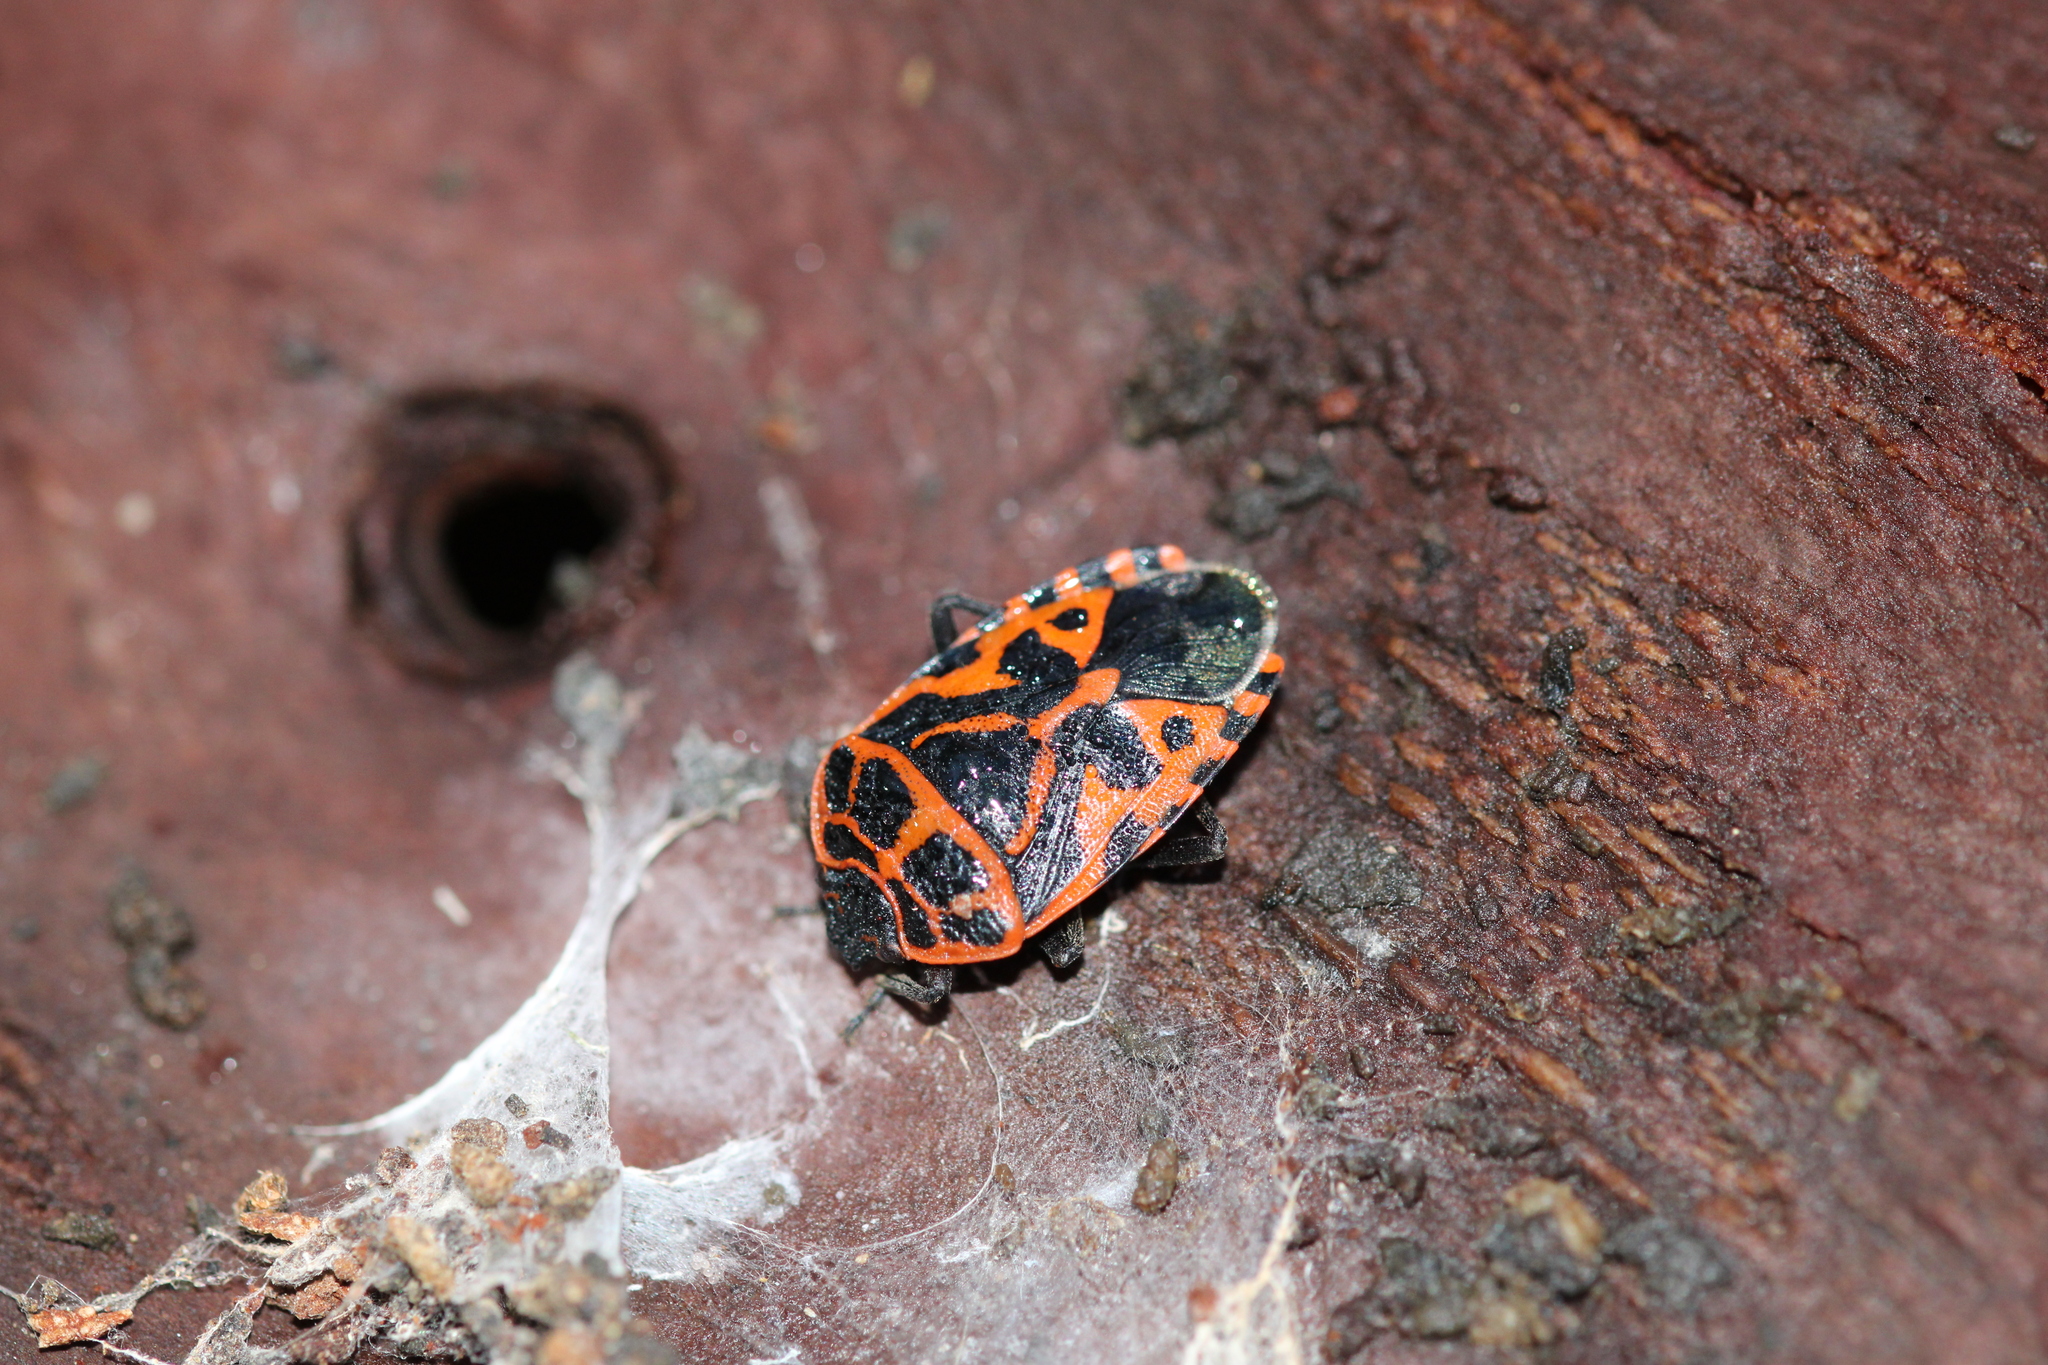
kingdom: Animalia
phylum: Arthropoda
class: Insecta
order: Hemiptera
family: Pentatomidae
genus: Eurydema
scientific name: Eurydema ventralis
